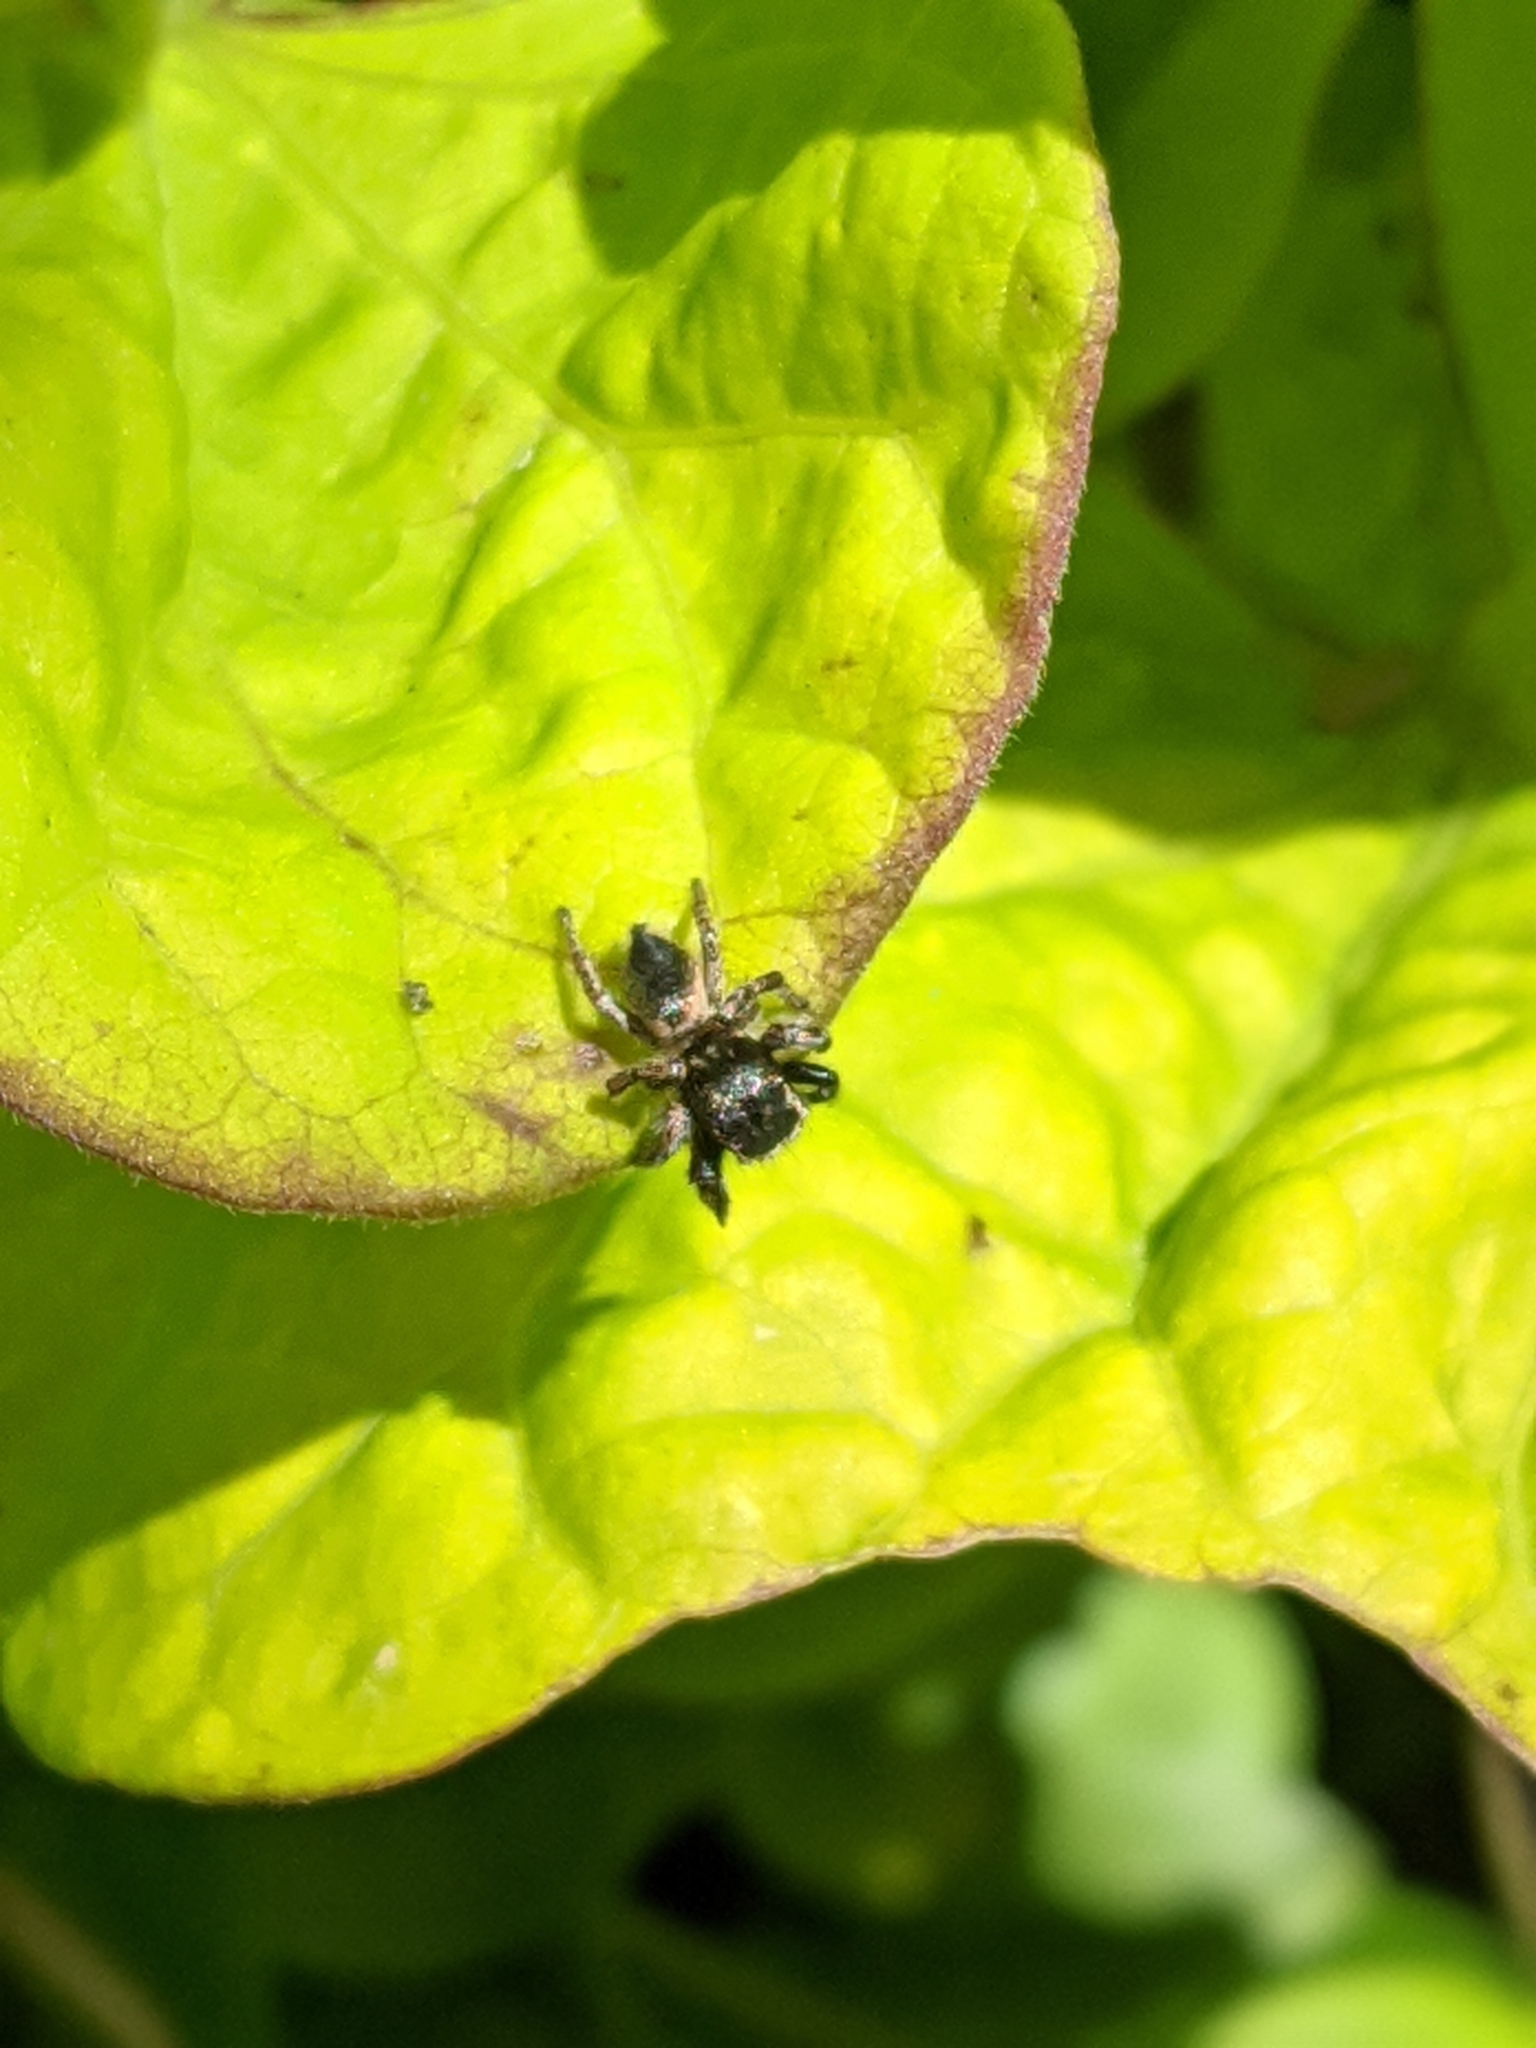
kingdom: Animalia
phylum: Arthropoda
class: Arachnida
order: Araneae
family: Salticidae
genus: Habronattus
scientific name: Habronattus hirsutus
